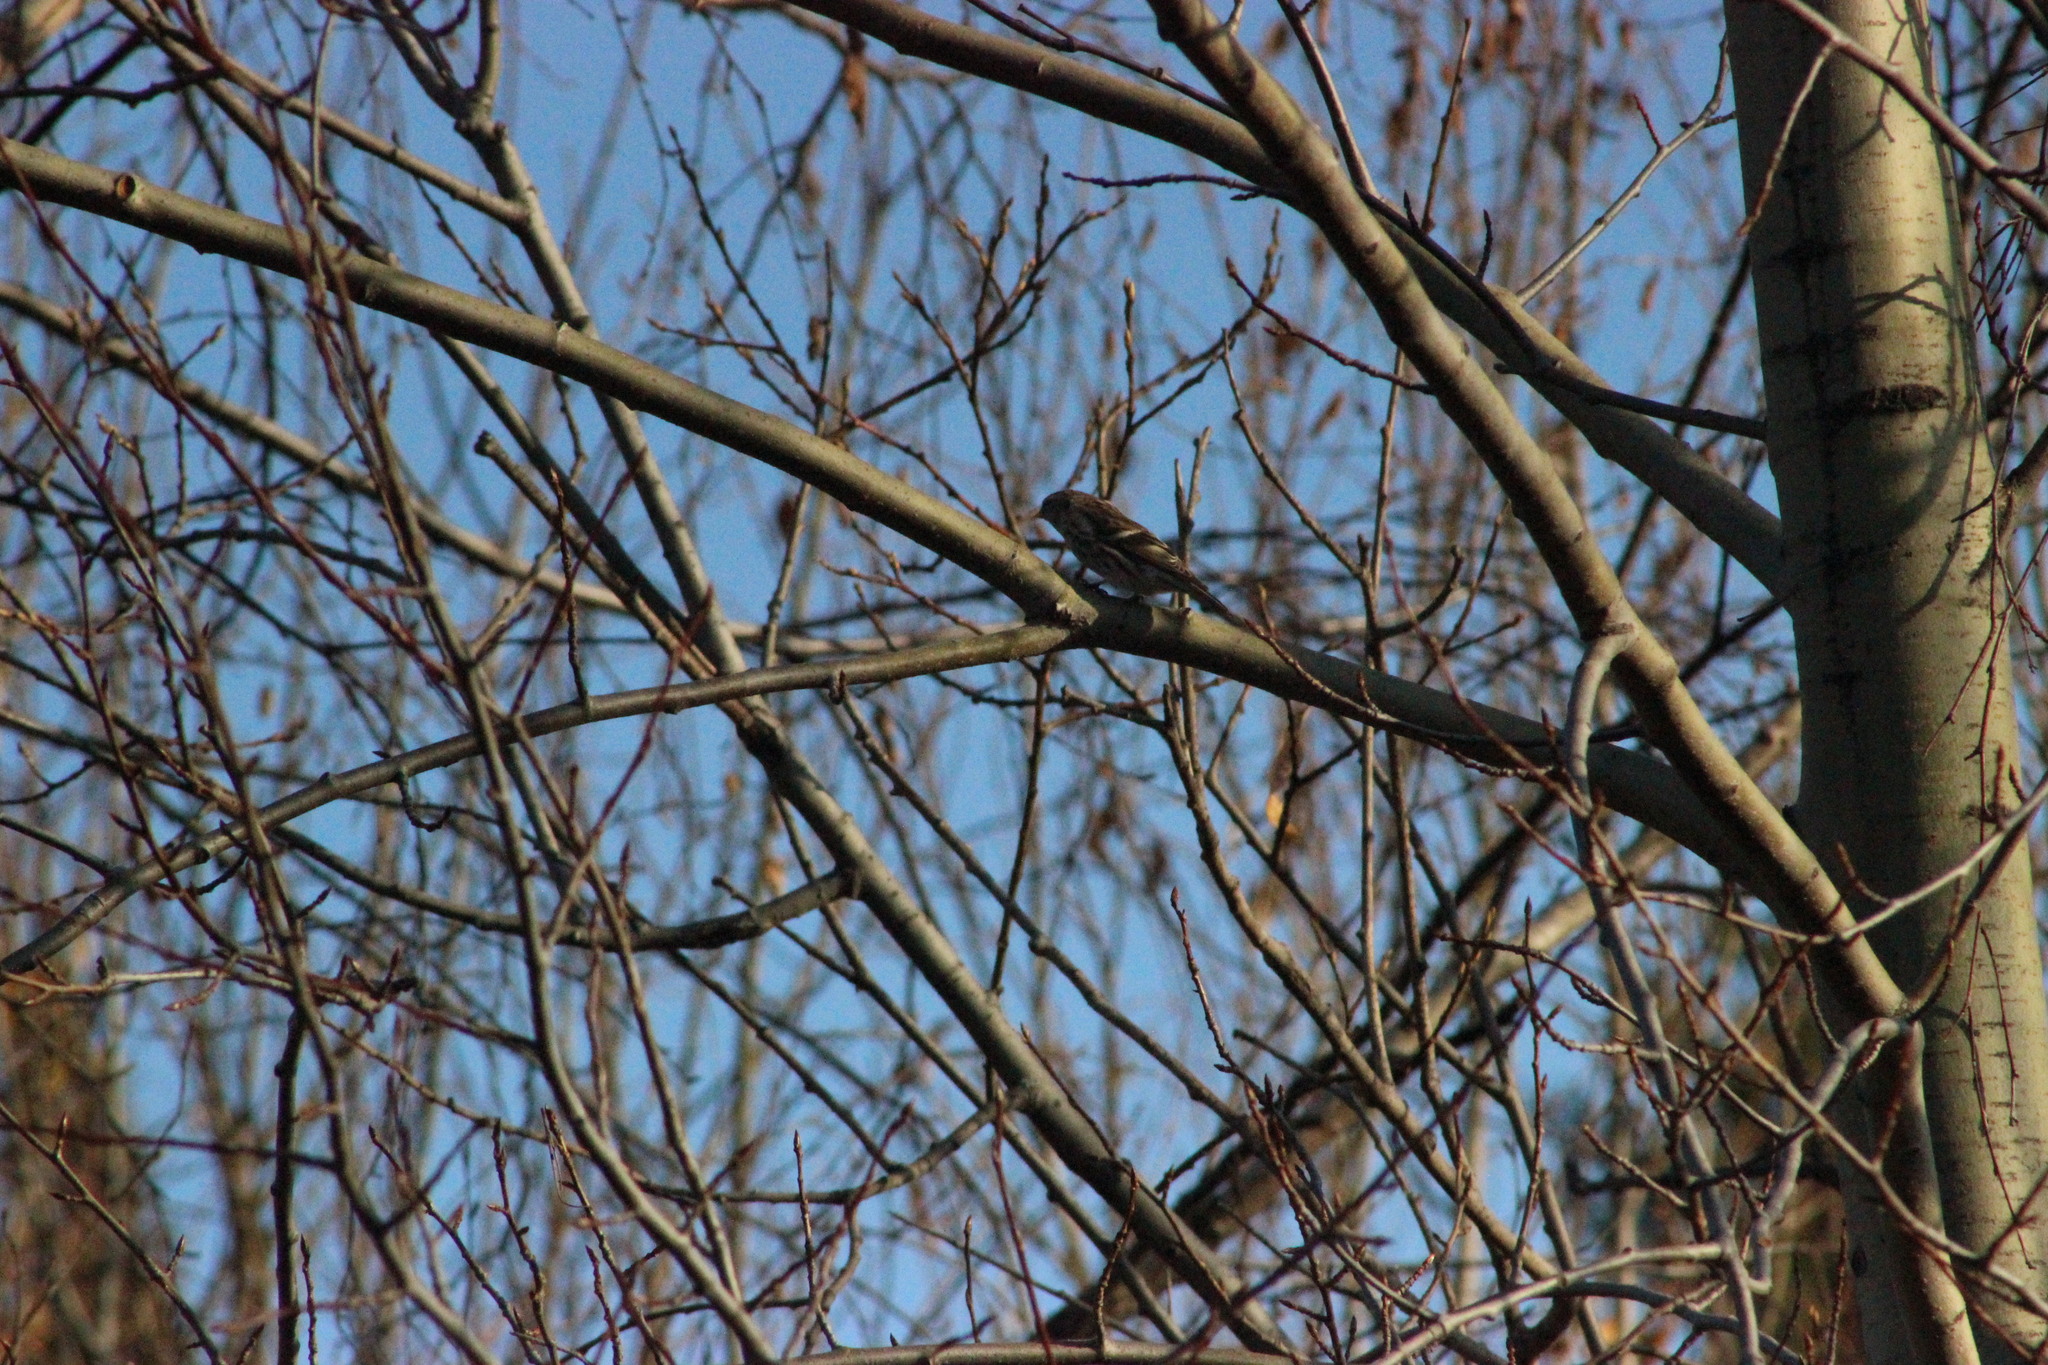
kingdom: Animalia
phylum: Chordata
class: Aves
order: Passeriformes
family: Fringillidae
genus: Acanthis
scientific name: Acanthis flammea
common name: Common redpoll
